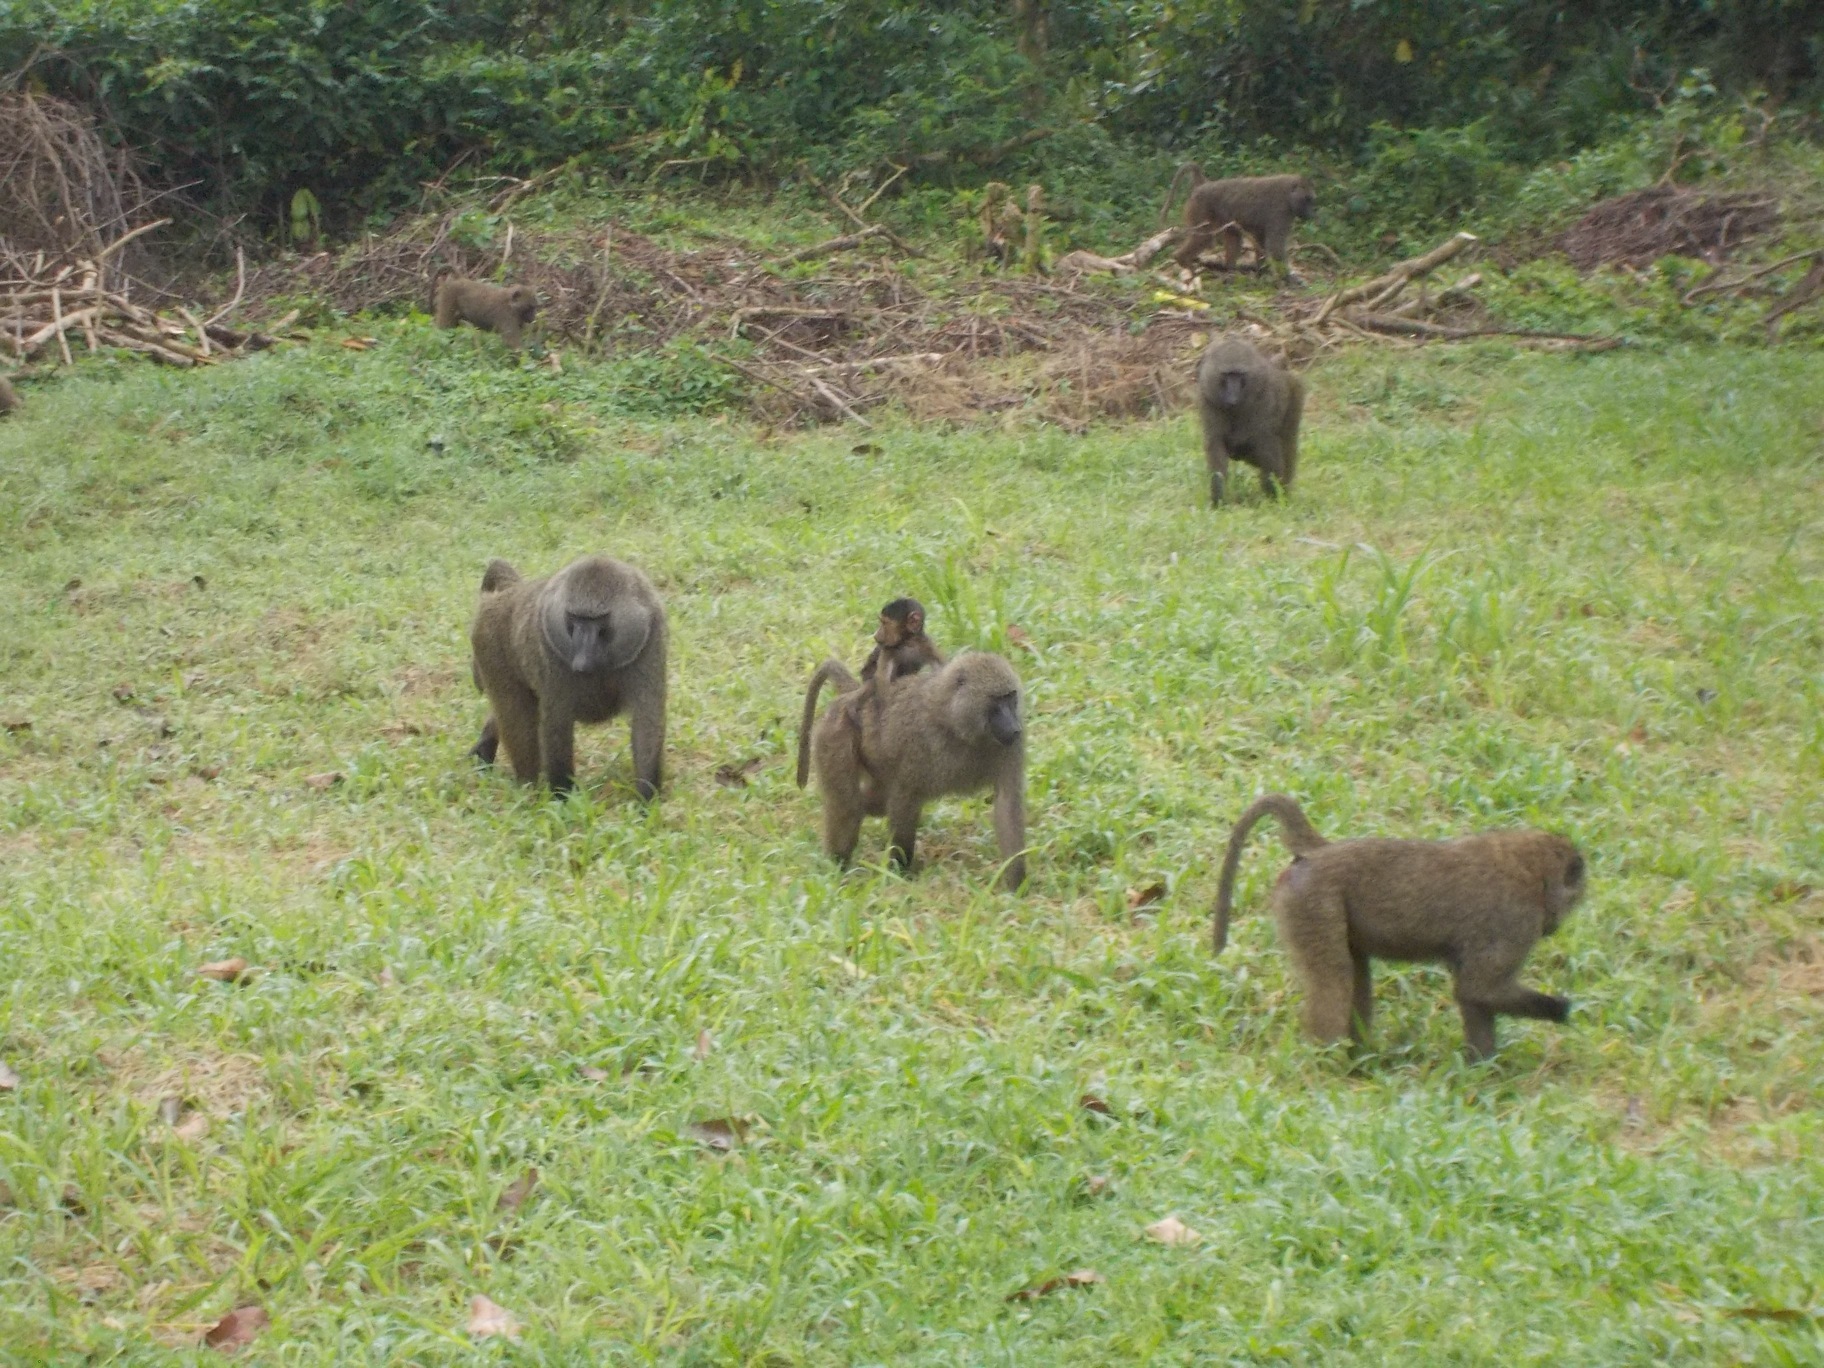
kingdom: Animalia
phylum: Chordata
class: Mammalia
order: Primates
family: Cercopithecidae
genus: Papio
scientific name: Papio anubis
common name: Olive baboon
